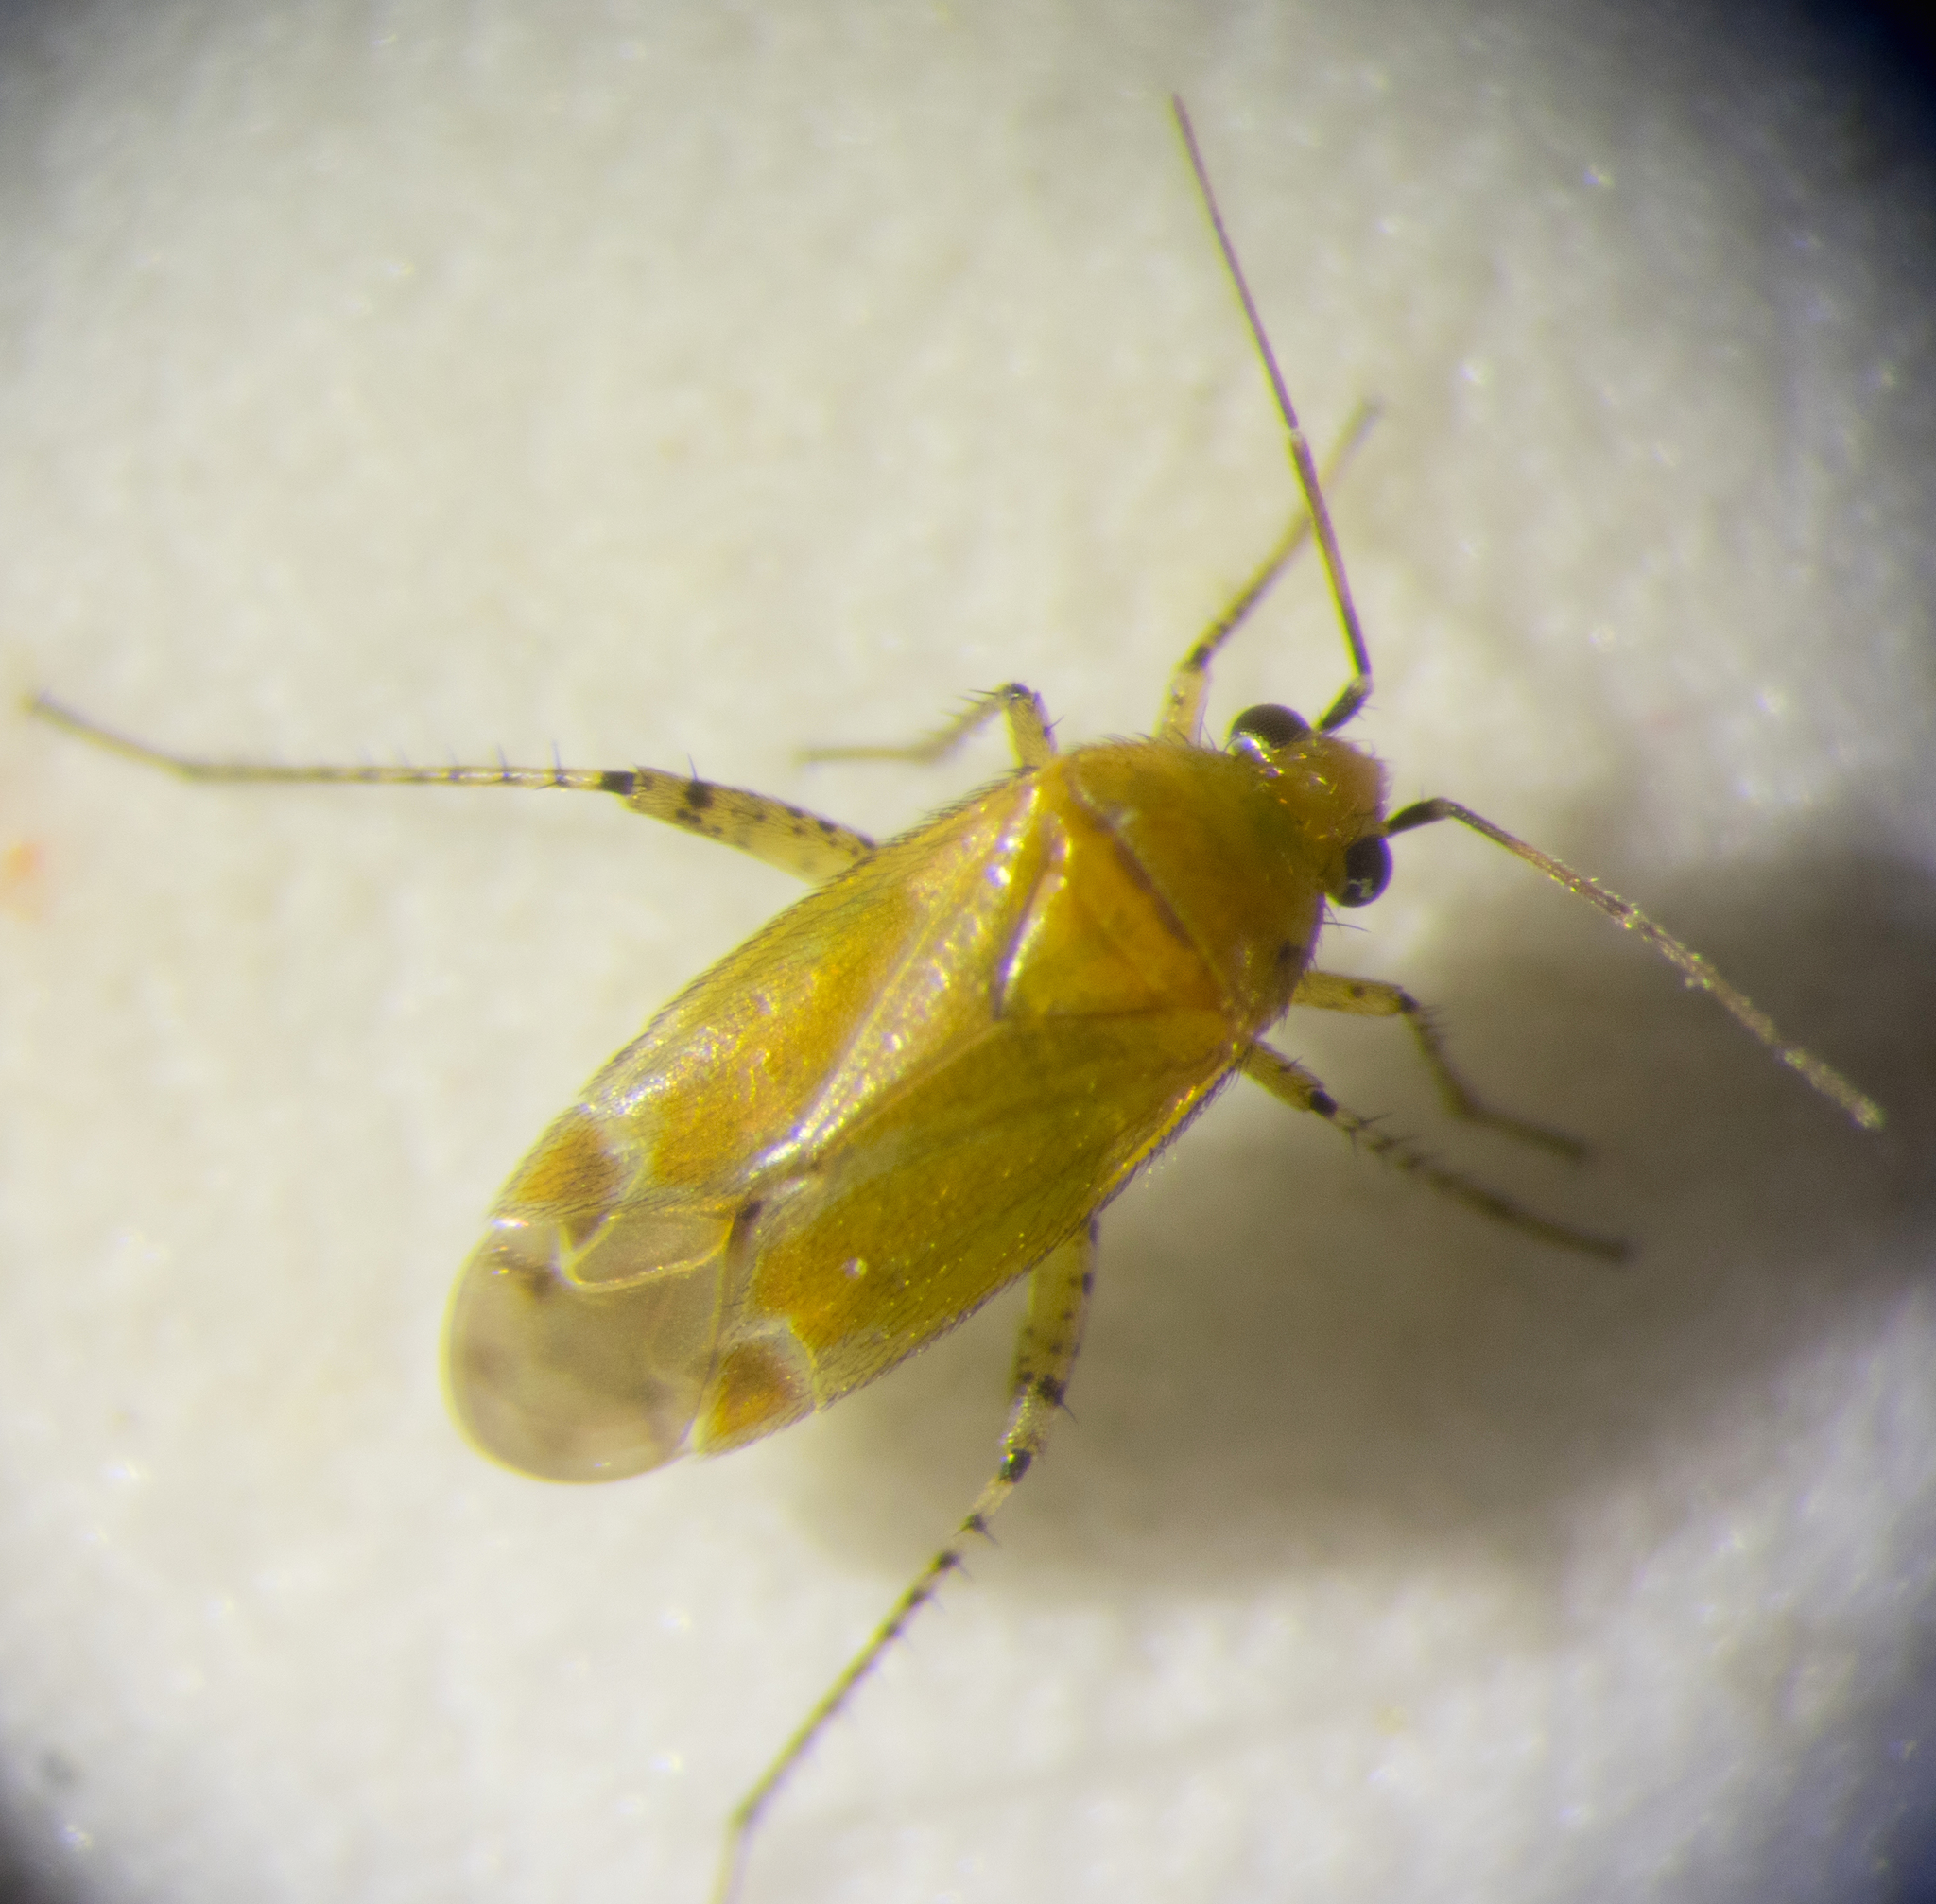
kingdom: Animalia
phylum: Arthropoda
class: Insecta
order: Hemiptera
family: Miridae
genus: Plagiognathus
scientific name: Plagiognathus fulvipennis
